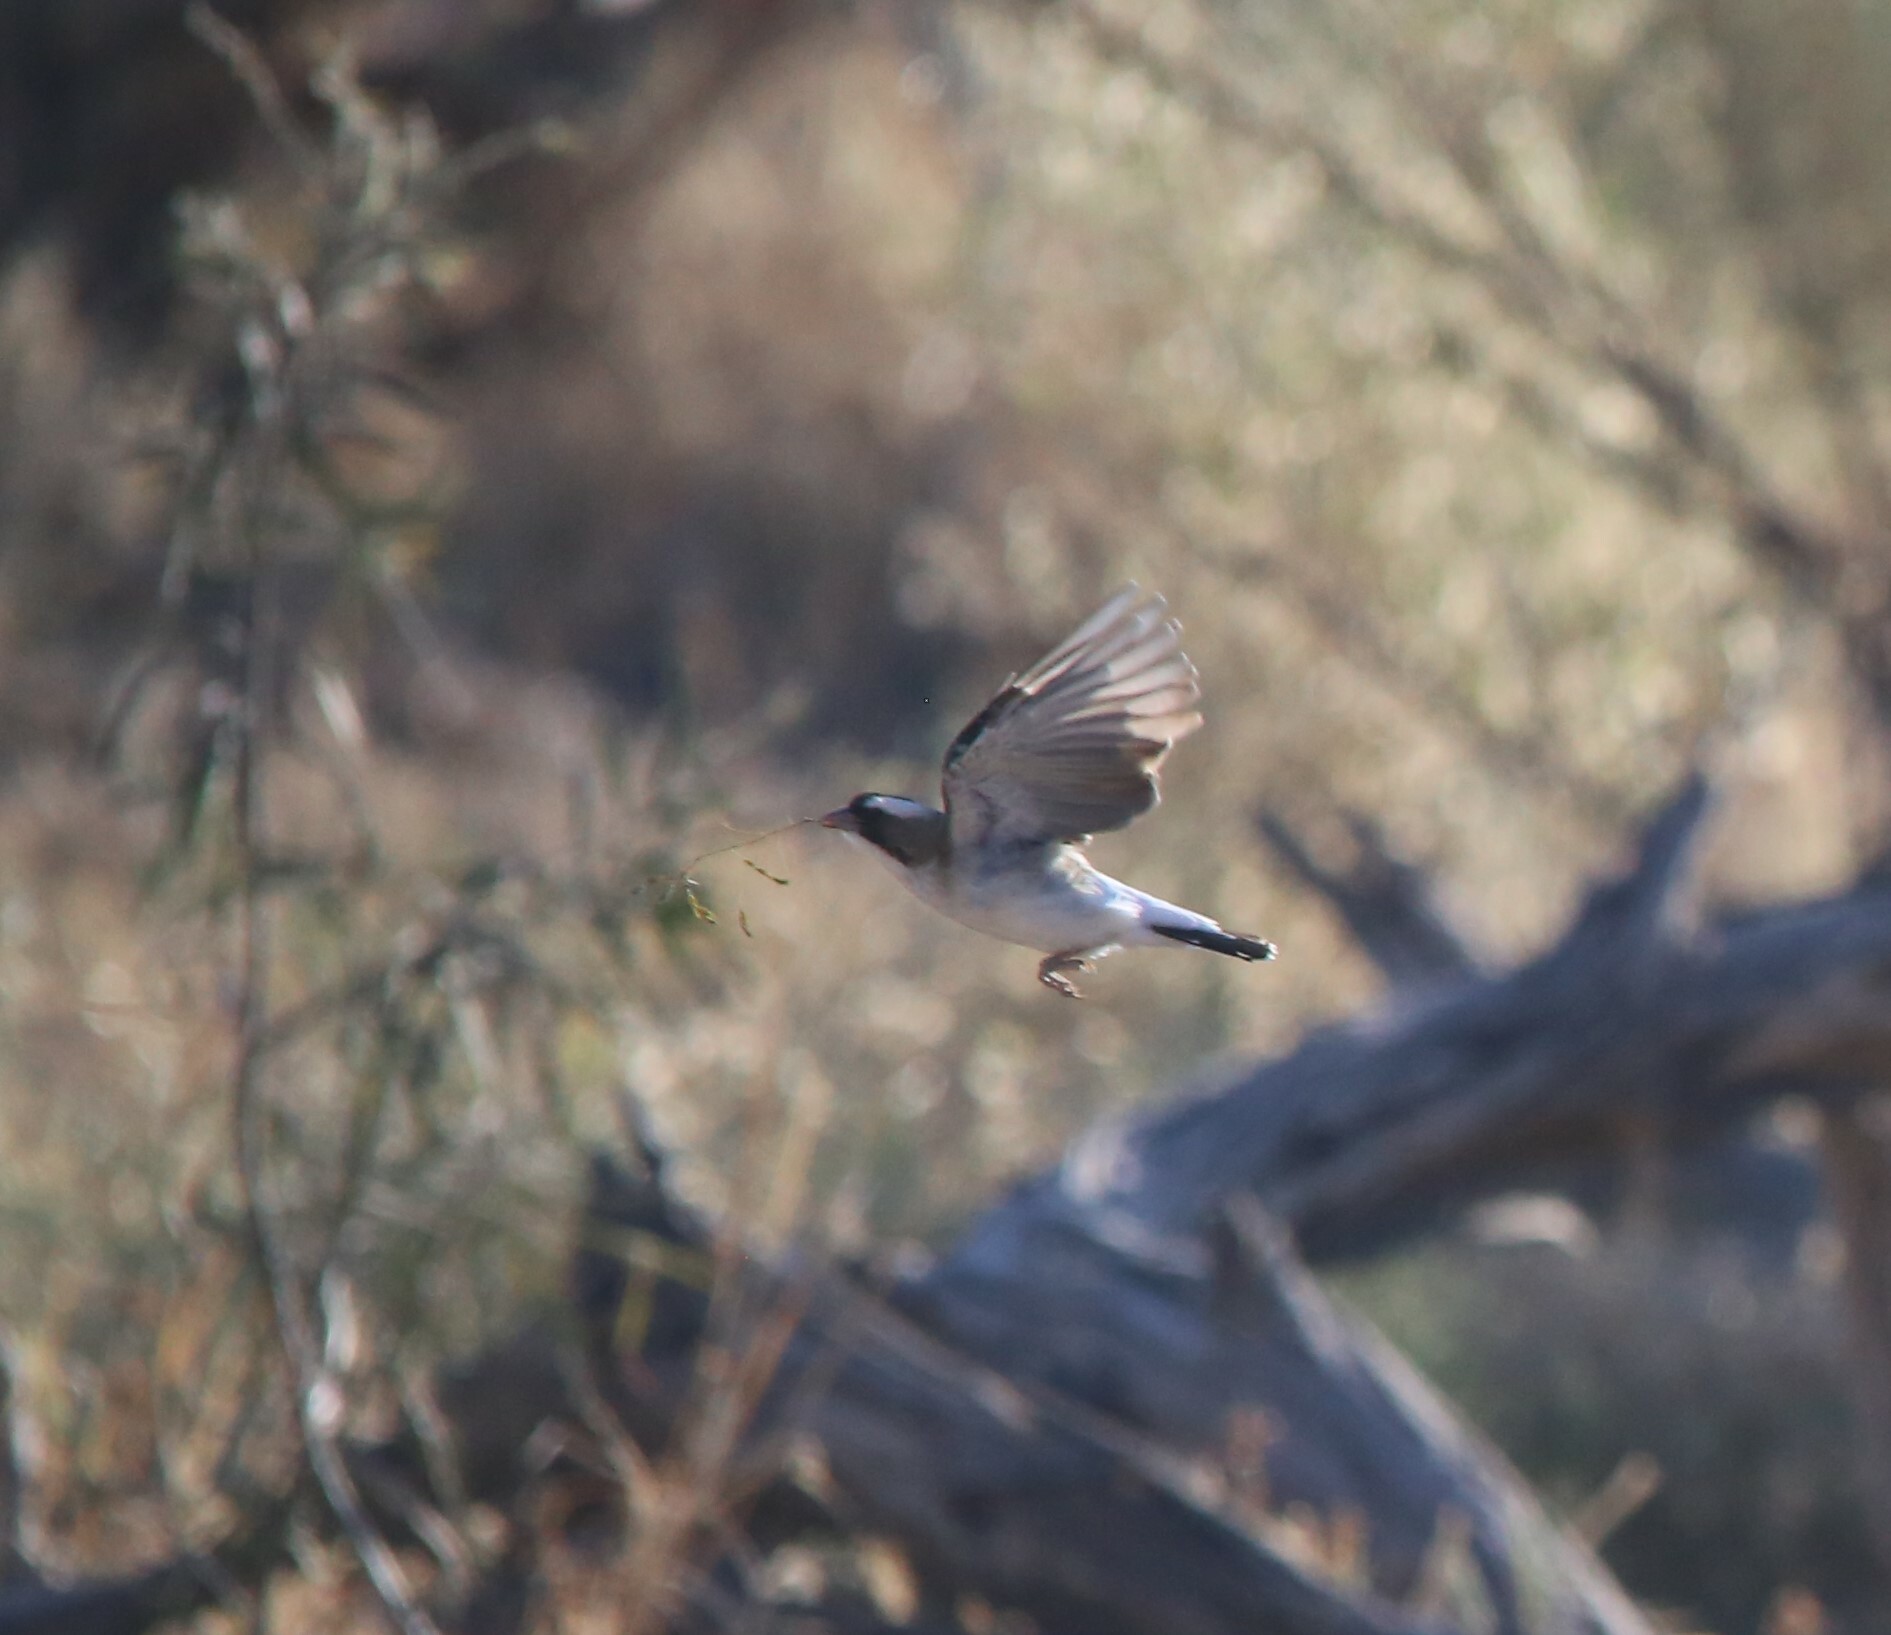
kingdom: Animalia
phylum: Chordata
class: Aves
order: Passeriformes
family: Passeridae
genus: Plocepasser
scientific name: Plocepasser mahali
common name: White-browed sparrow-weaver
